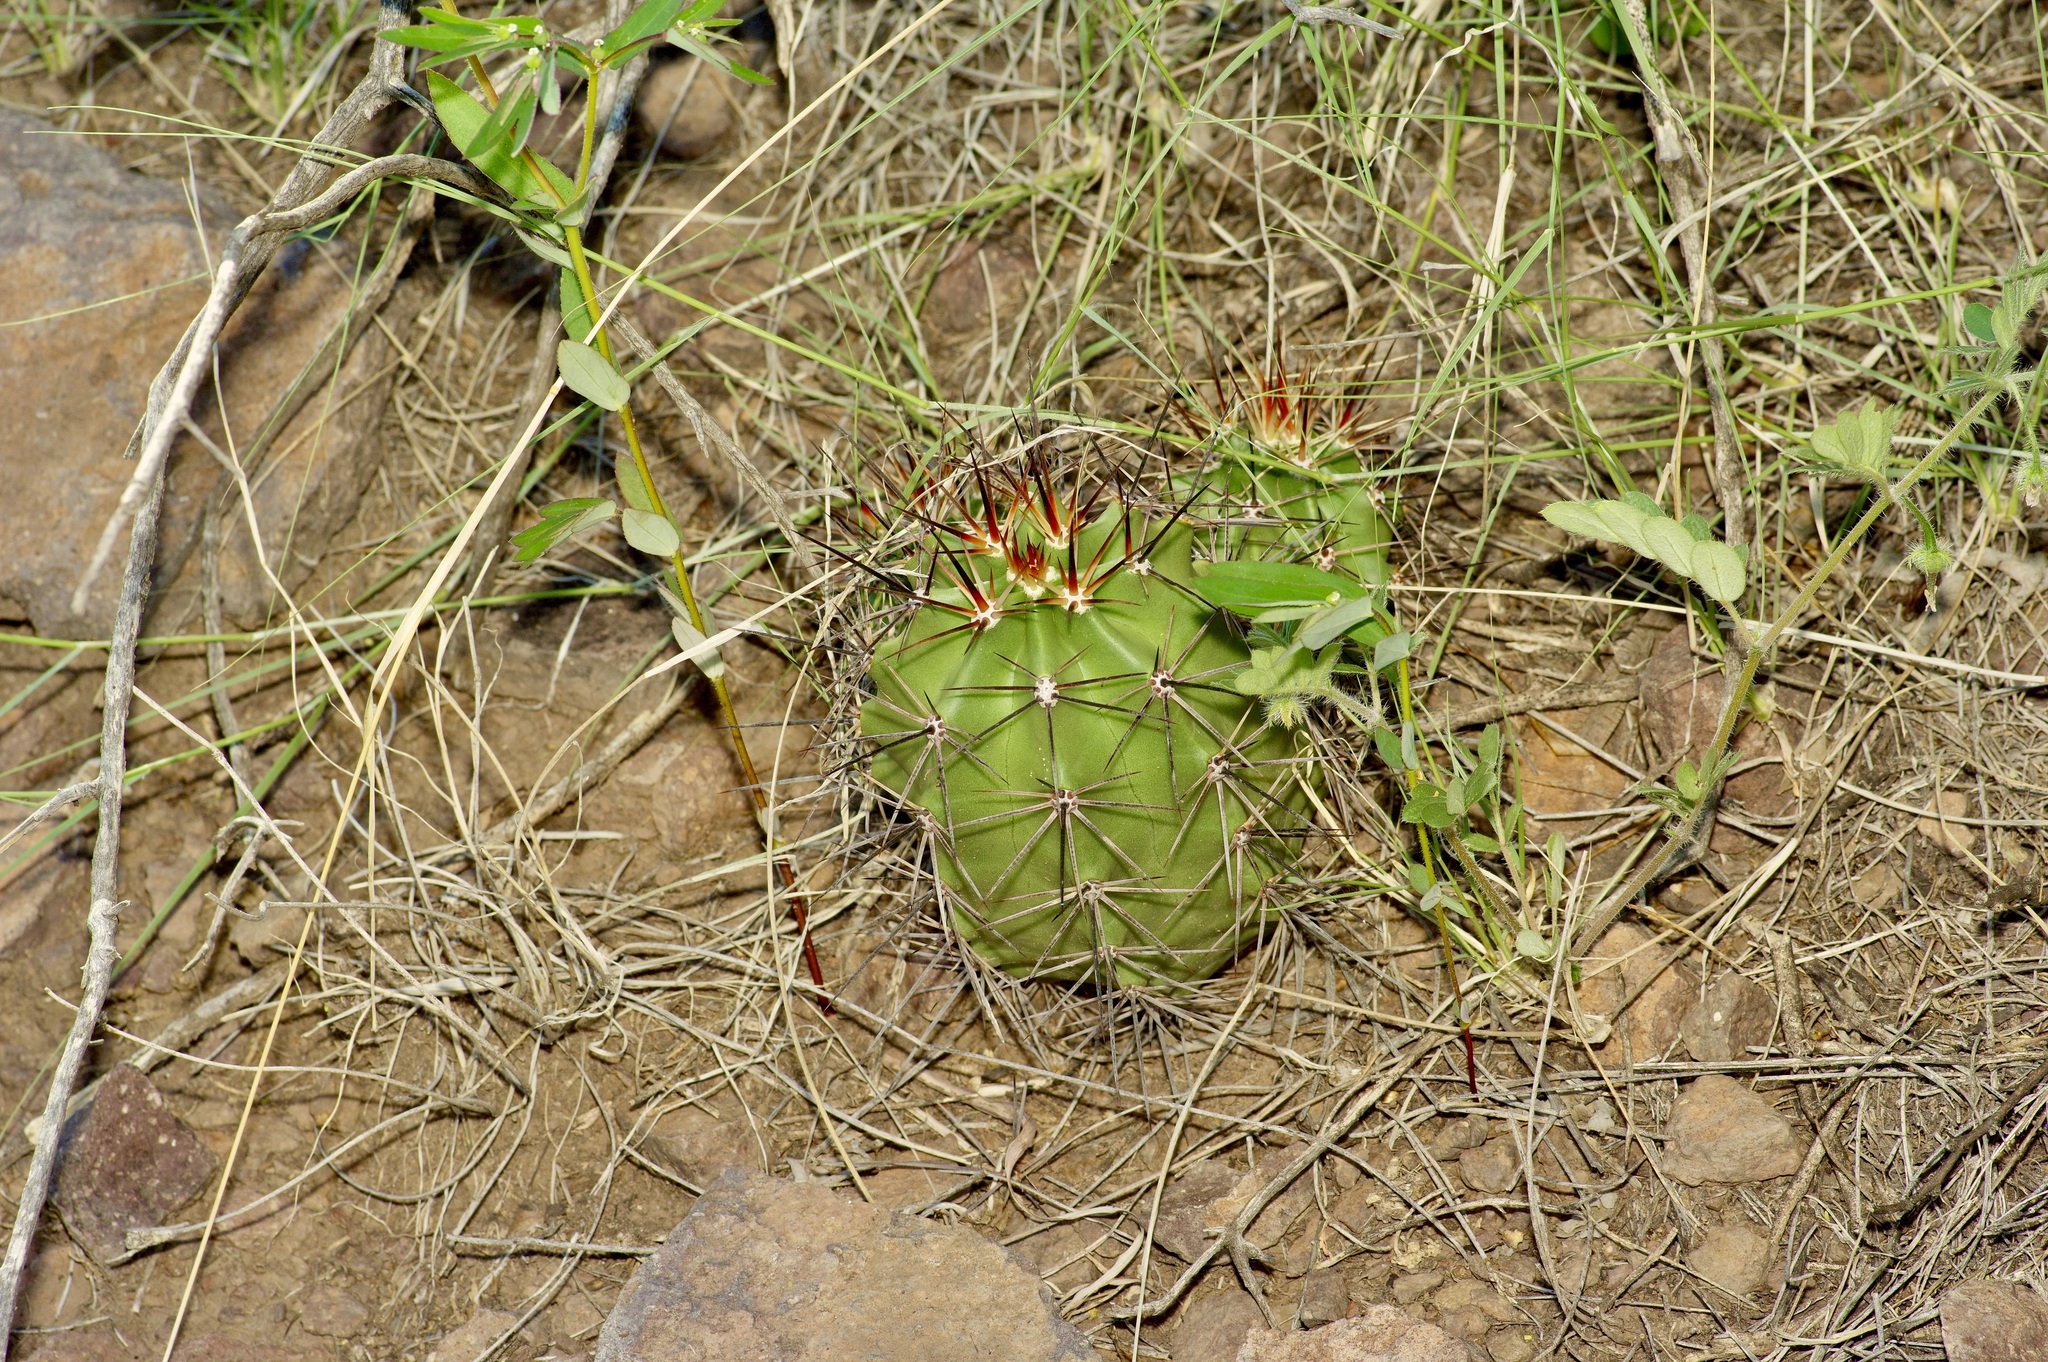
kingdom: Plantae
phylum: Tracheophyta
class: Magnoliopsida
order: Caryophyllales
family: Cactaceae
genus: Echinocereus
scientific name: Echinocereus coccineus
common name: Scarlet hedgehog cactus
